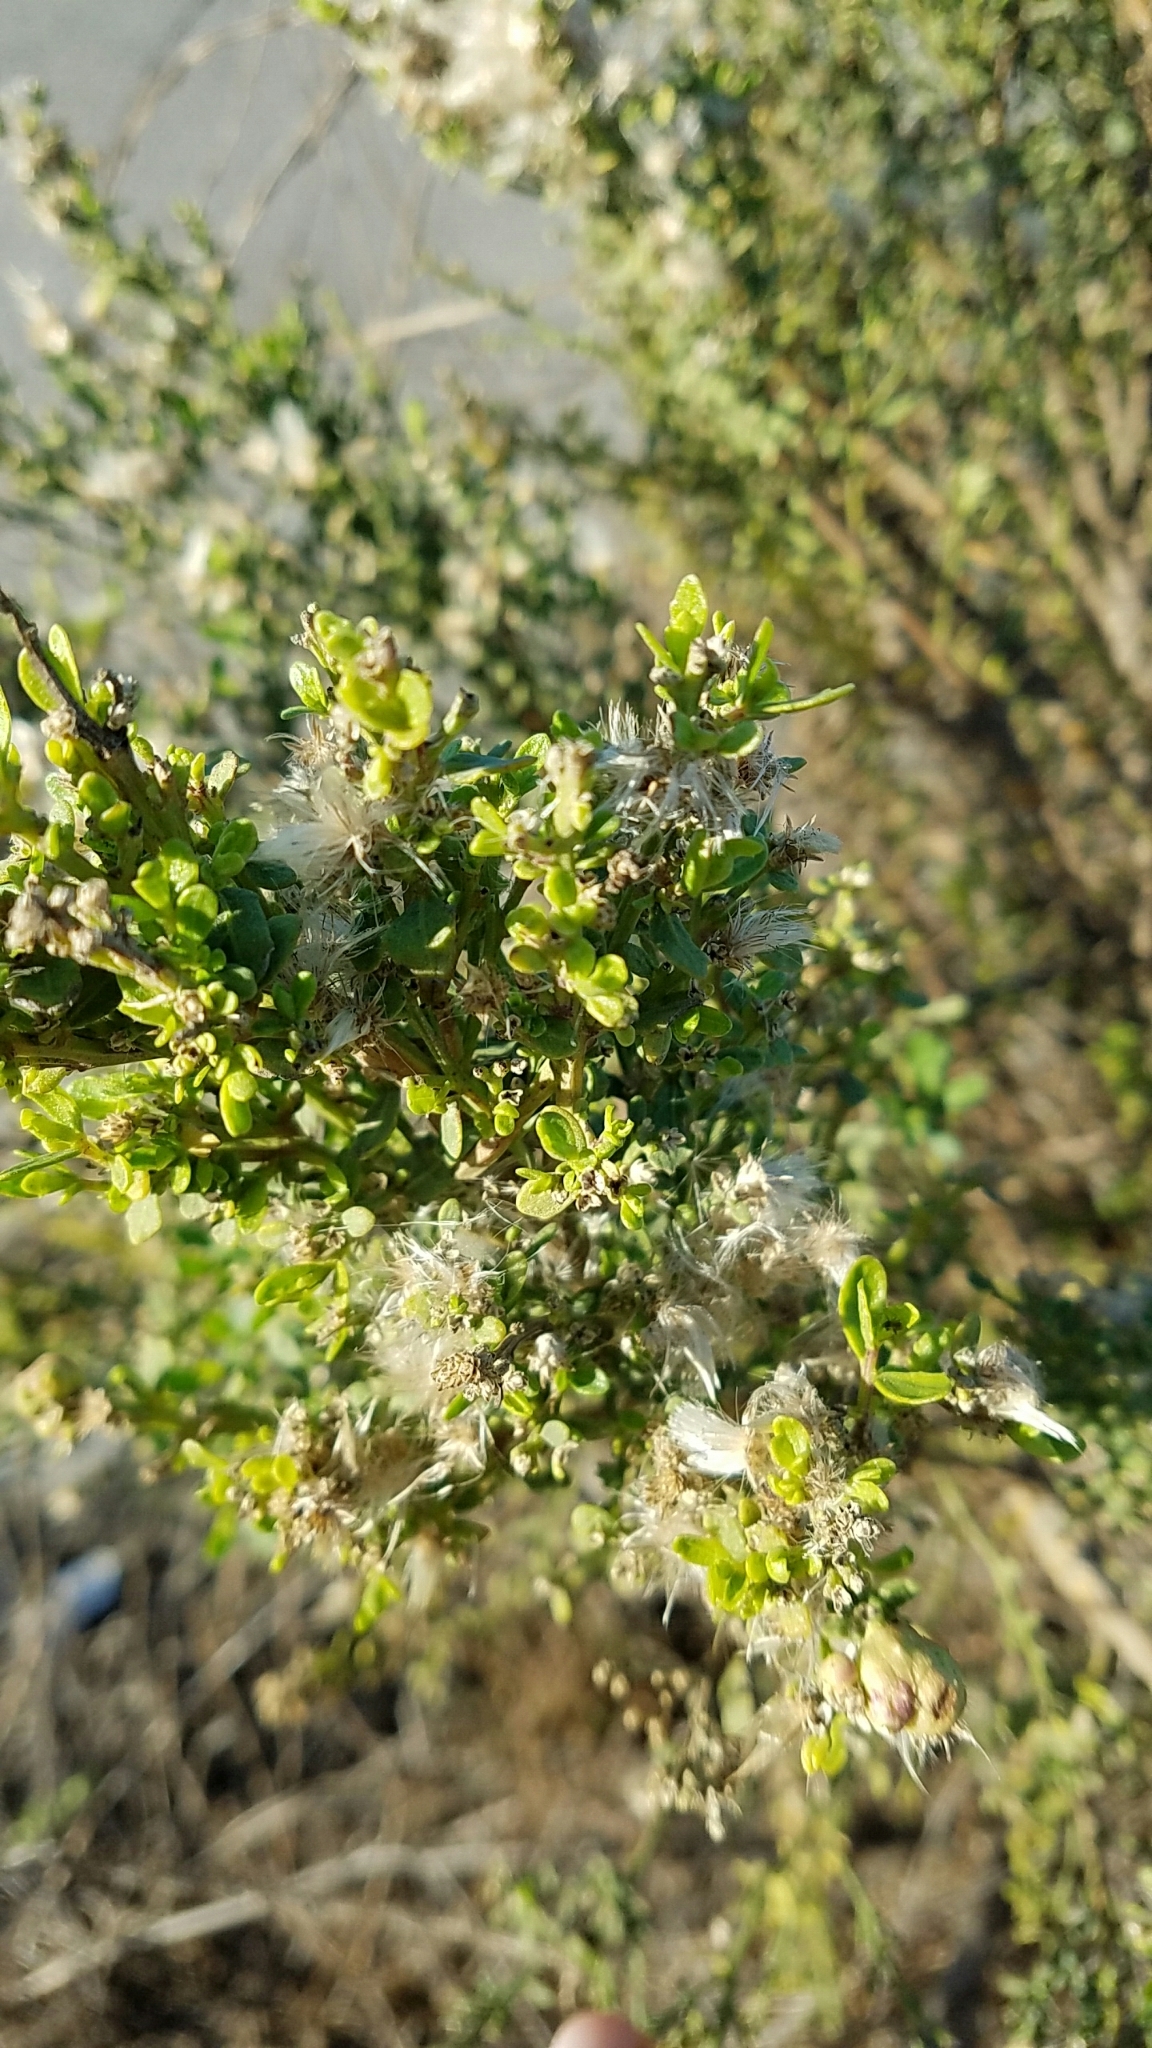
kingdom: Plantae
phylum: Tracheophyta
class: Magnoliopsida
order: Asterales
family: Asteraceae
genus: Baccharis
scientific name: Baccharis pilularis
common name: Coyotebrush
